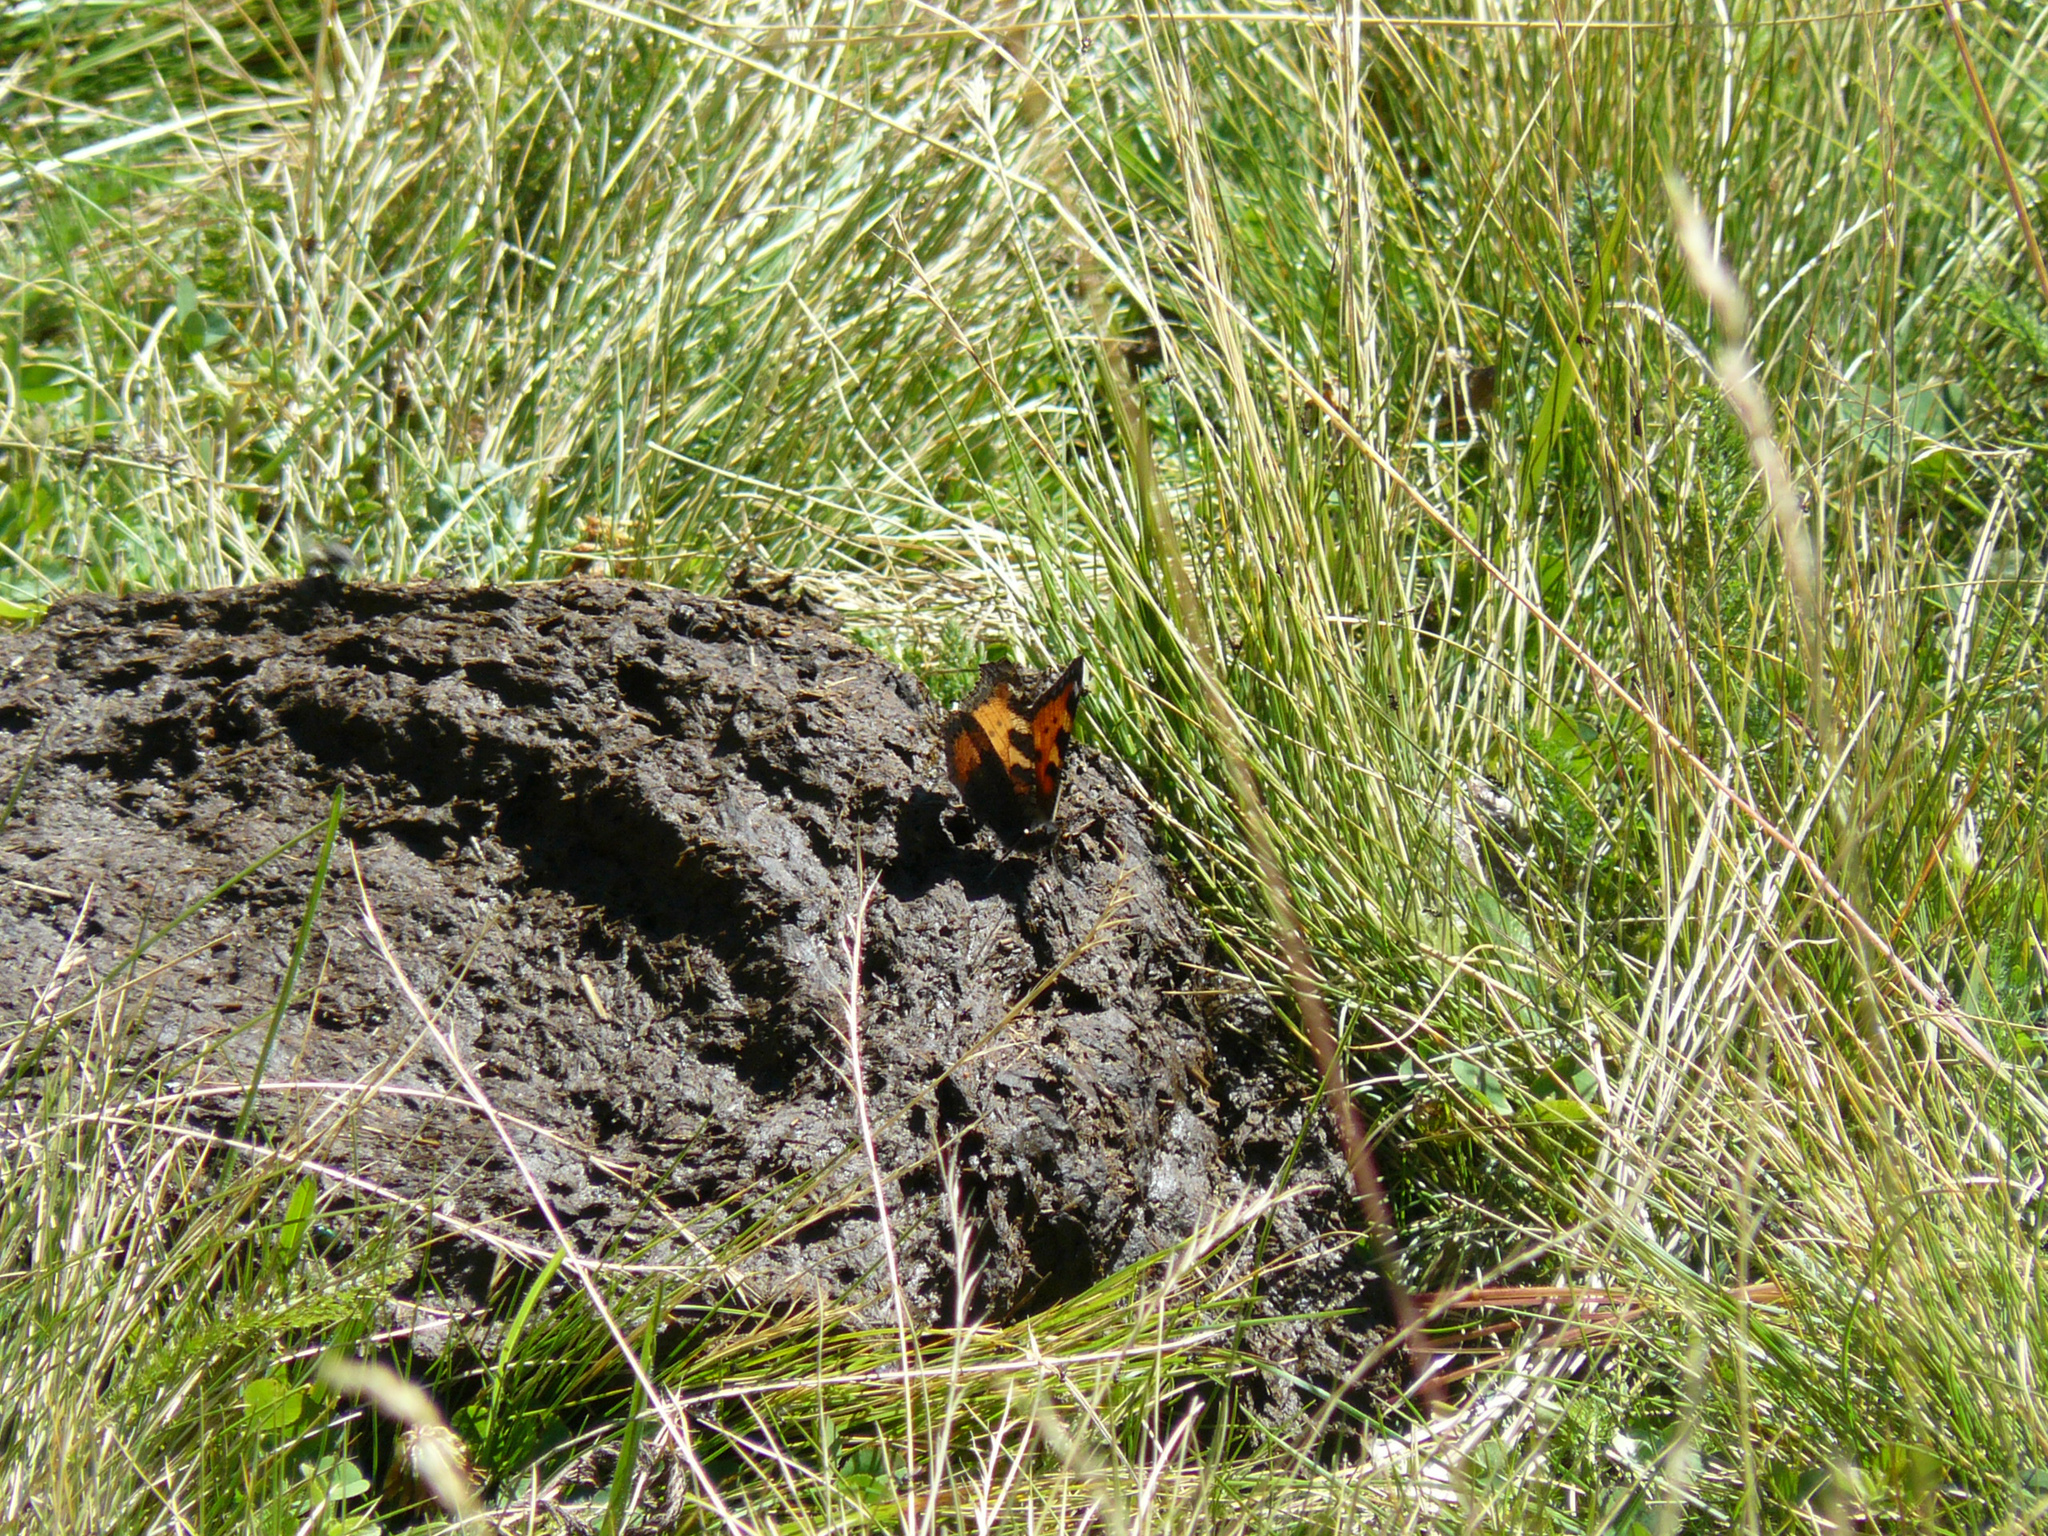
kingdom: Animalia
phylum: Arthropoda
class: Insecta
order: Lepidoptera
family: Nymphalidae
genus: Aglais
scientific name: Aglais urticae
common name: Small tortoiseshell
